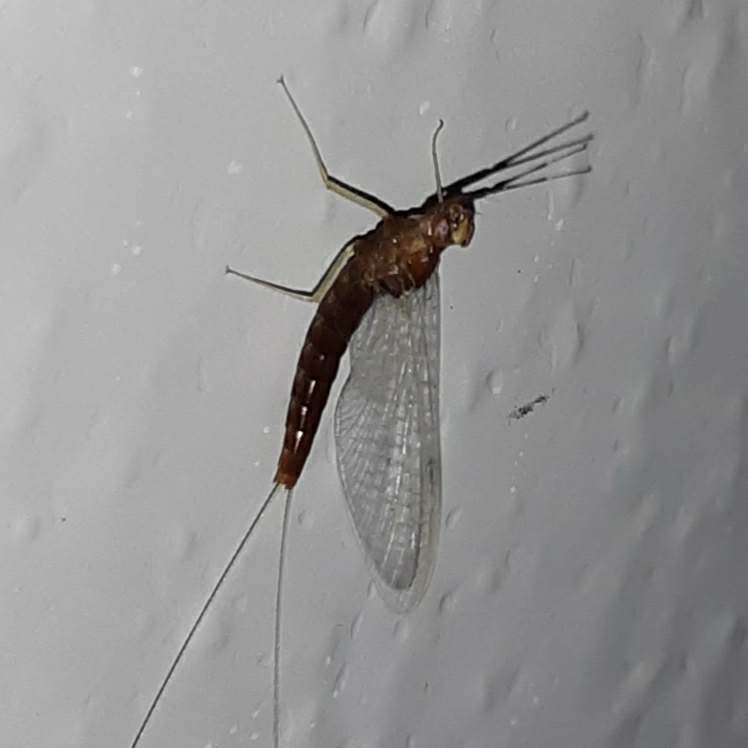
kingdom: Animalia
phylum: Arthropoda
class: Insecta
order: Ephemeroptera
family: Isonychiidae
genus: Isonychia
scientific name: Isonychia bicolor
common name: Mahogany dun
